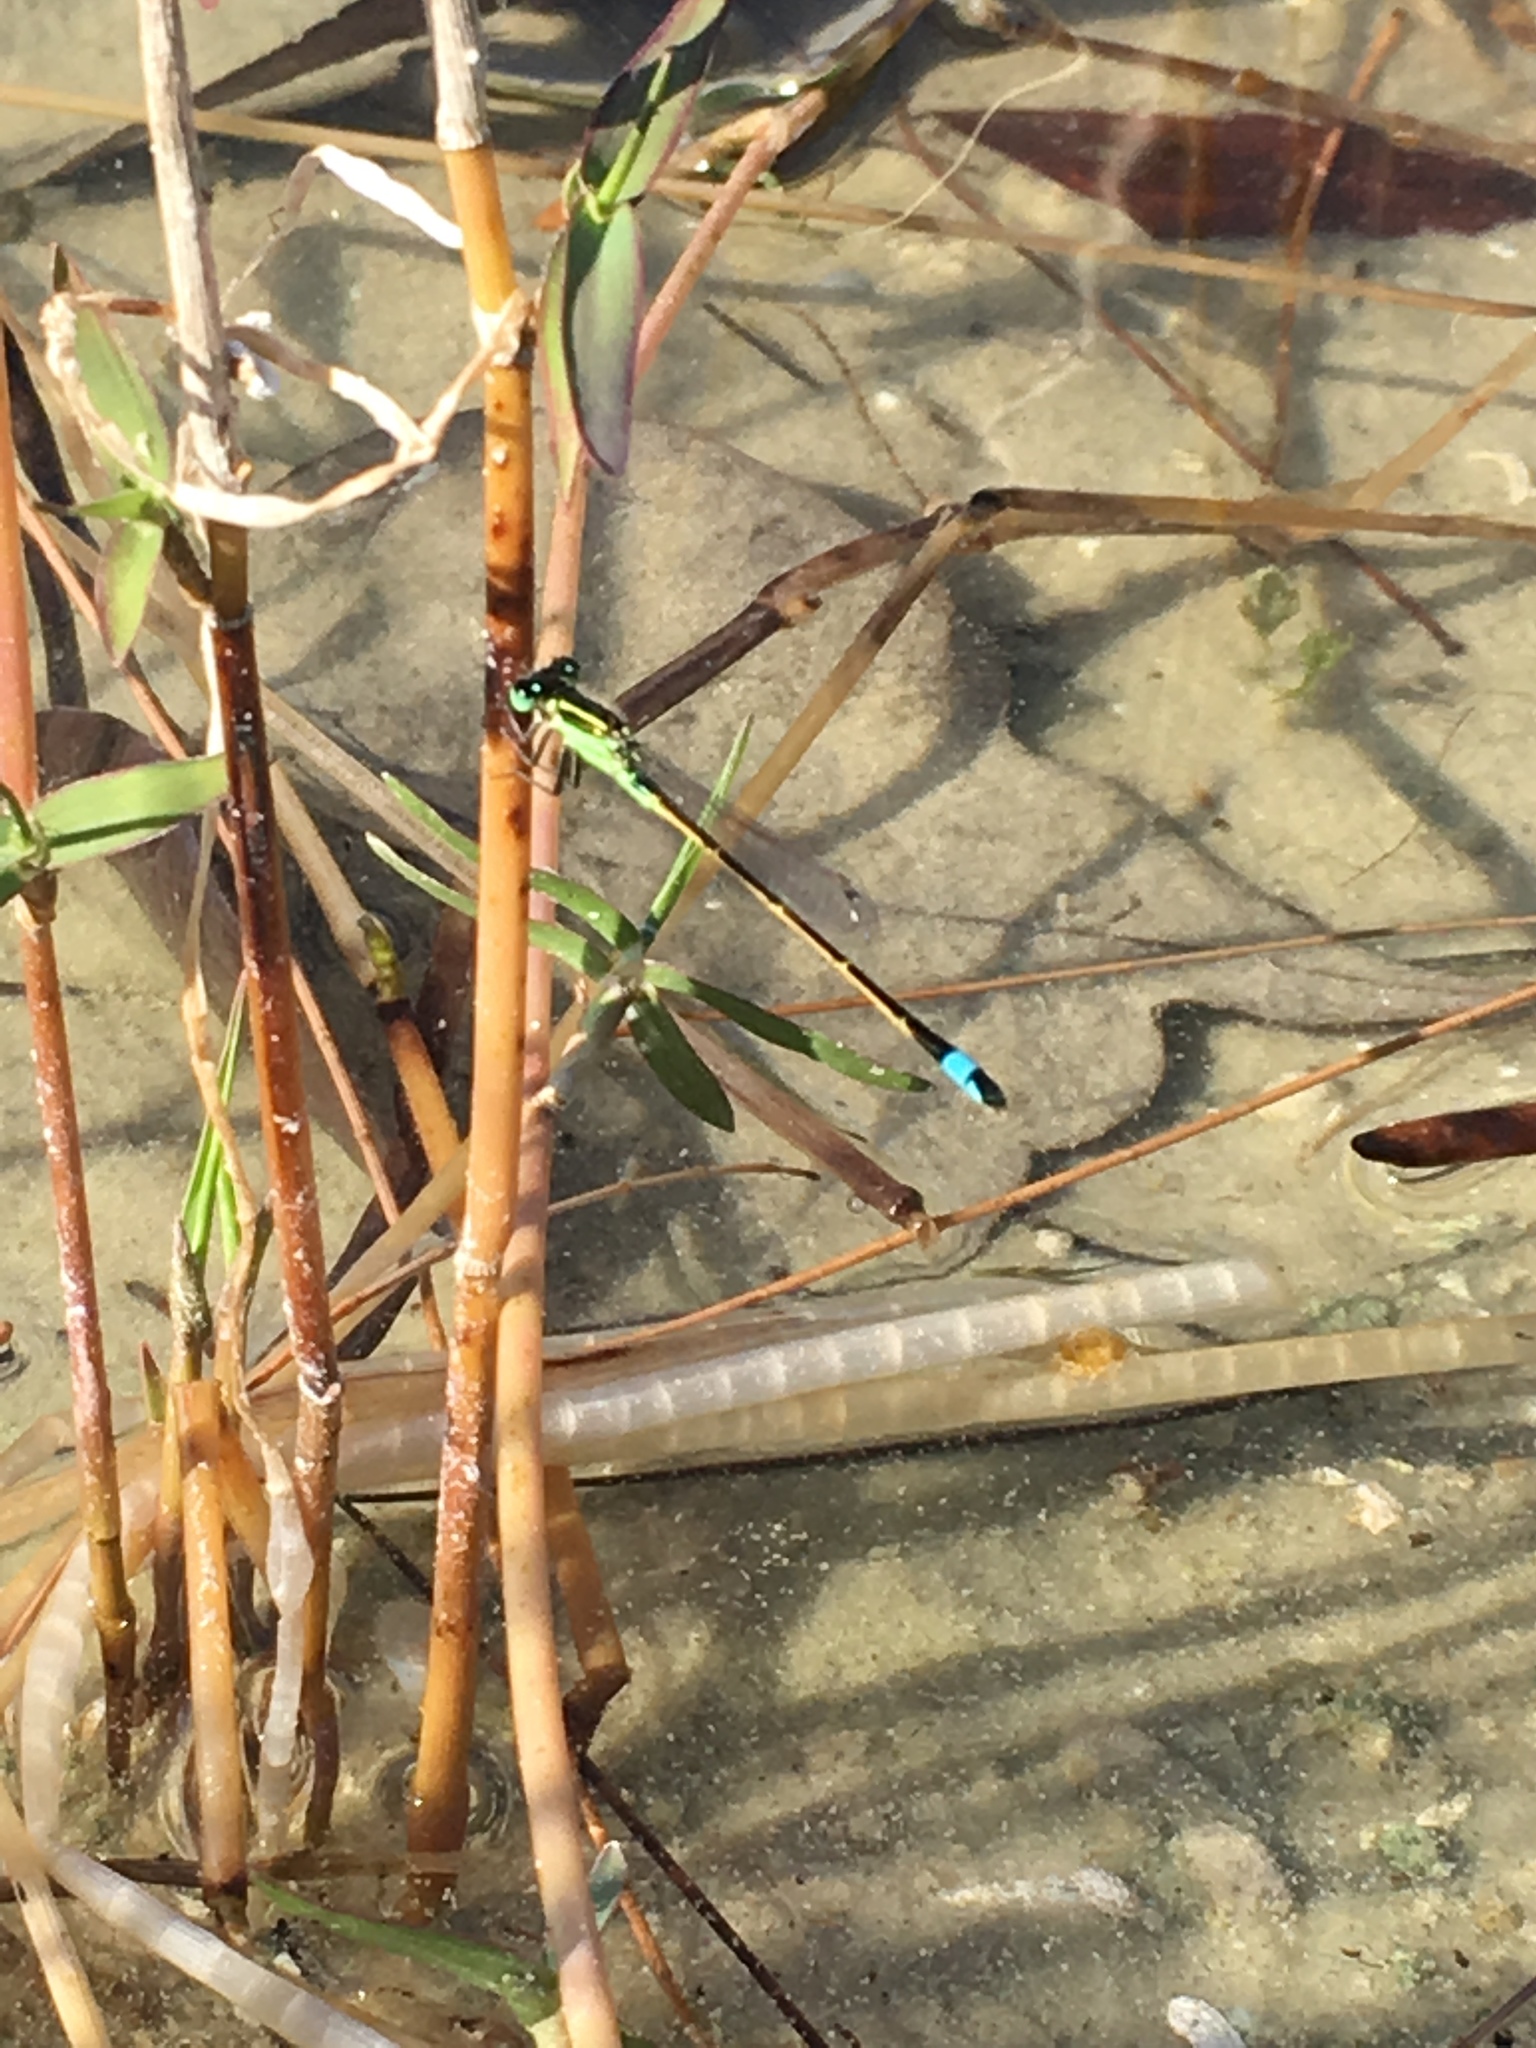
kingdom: Animalia
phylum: Arthropoda
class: Insecta
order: Odonata
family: Coenagrionidae
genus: Ischnura
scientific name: Ischnura ramburii
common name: Rambur's forktail
